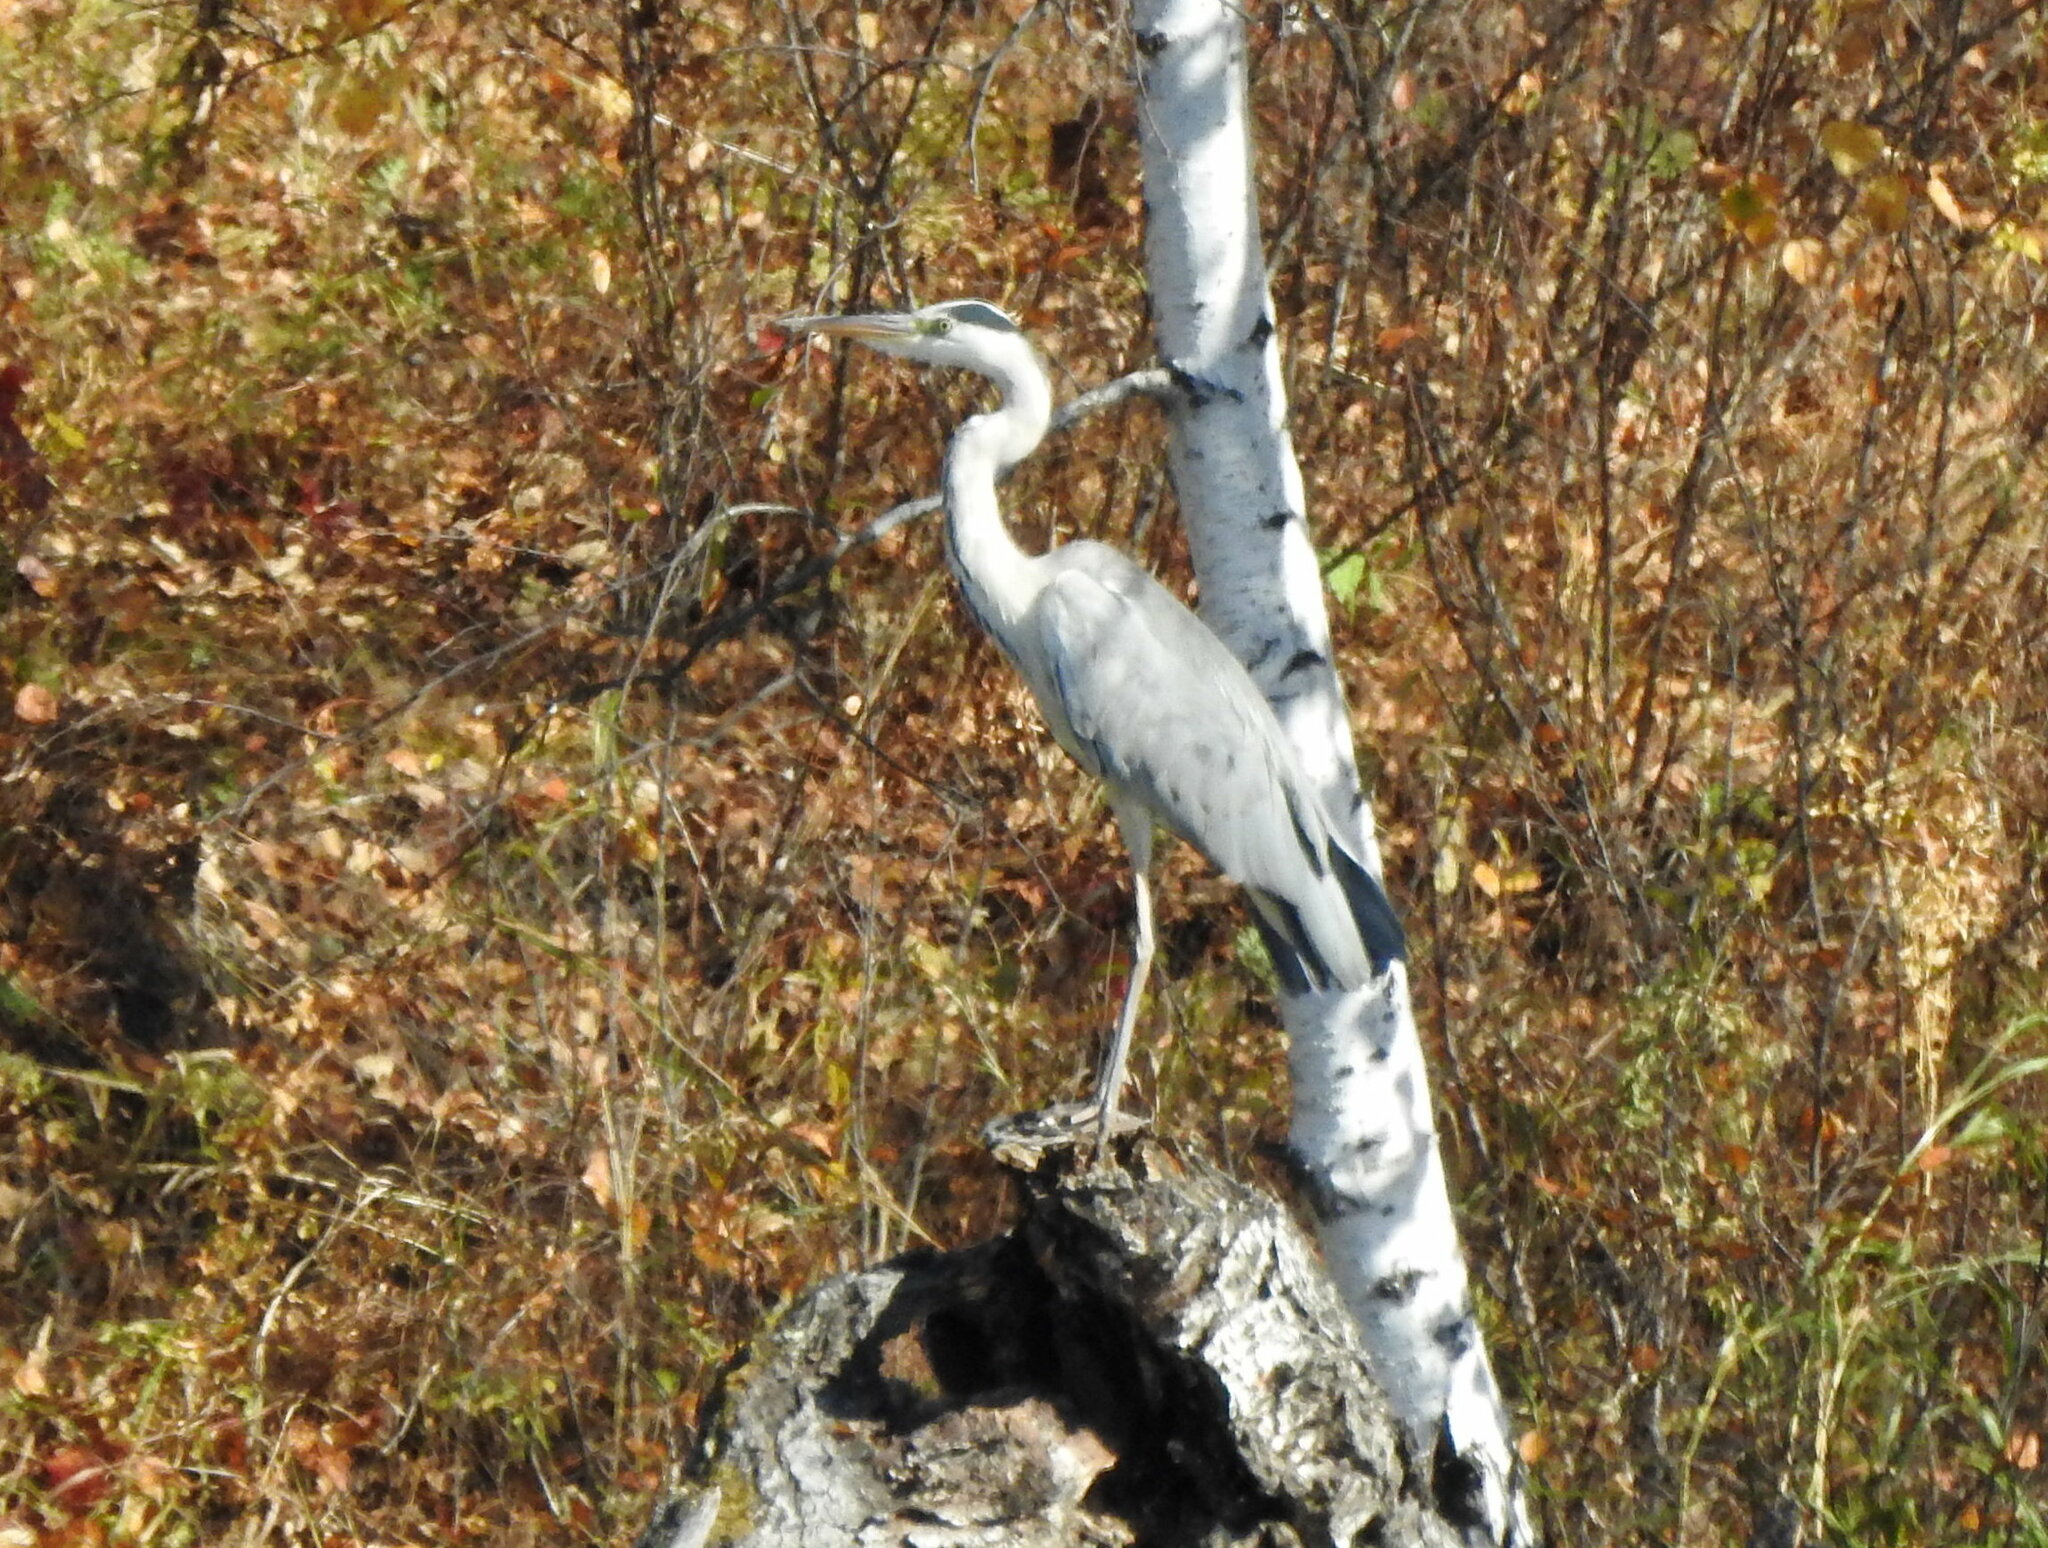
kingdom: Animalia
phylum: Chordata
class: Aves
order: Pelecaniformes
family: Ardeidae
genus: Ardea
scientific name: Ardea cinerea
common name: Grey heron
